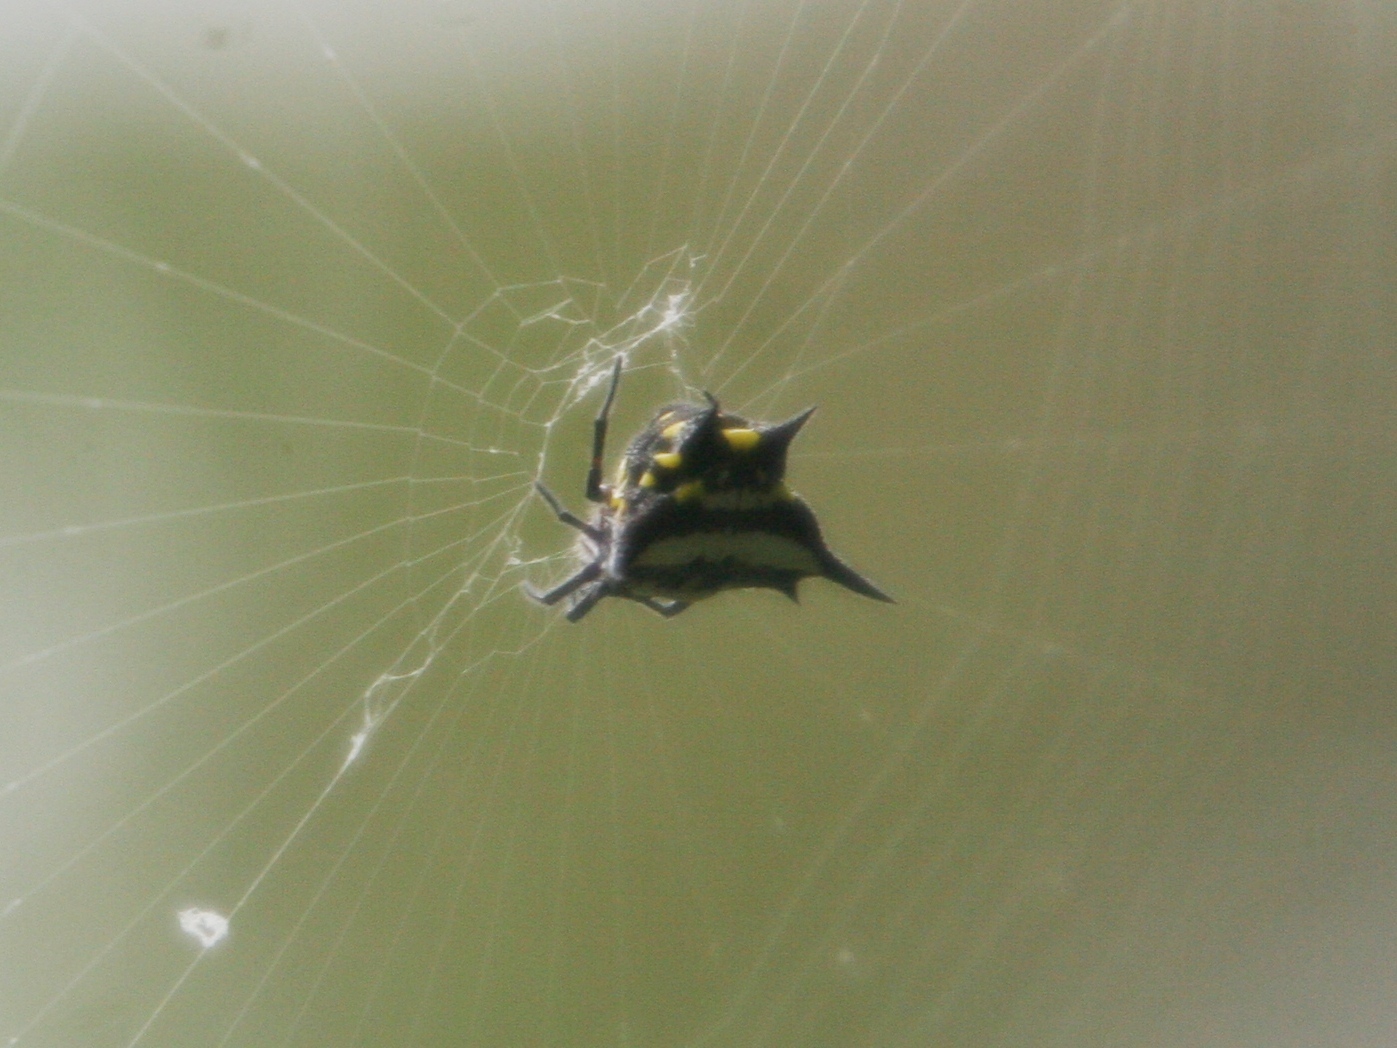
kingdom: Animalia
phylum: Arthropoda
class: Arachnida
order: Araneae
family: Araneidae
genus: Gasteracantha
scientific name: Gasteracantha rhomboidea
